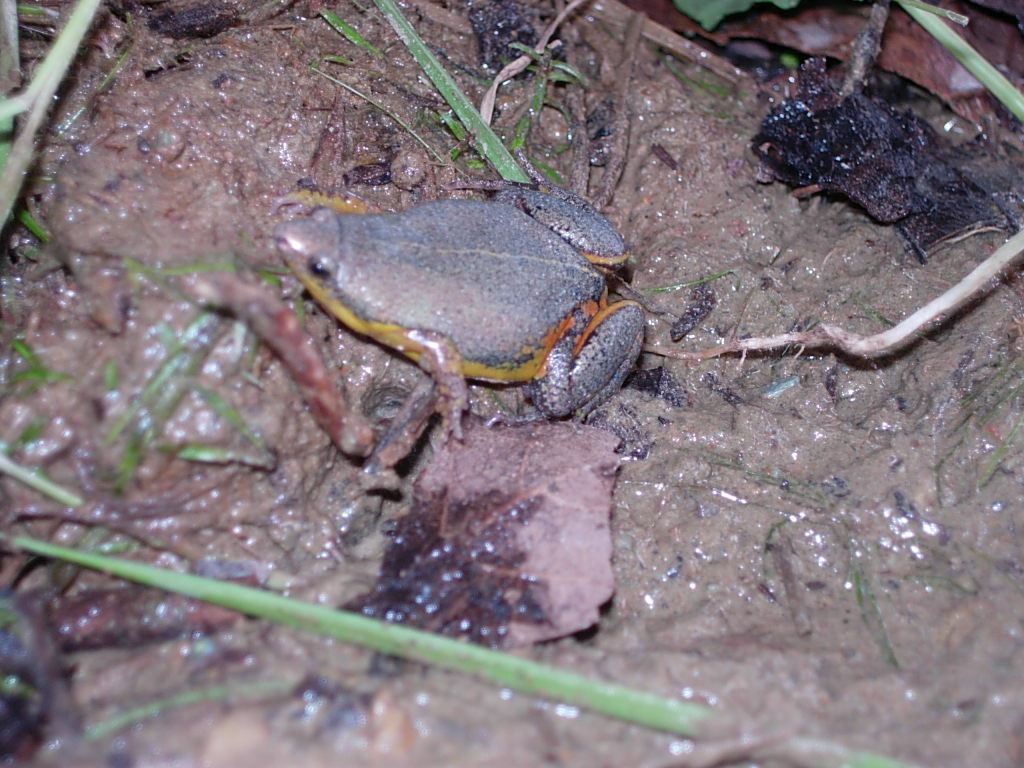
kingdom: Animalia
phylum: Chordata
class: Amphibia
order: Anura
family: Microhylidae
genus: Elachistocleis
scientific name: Elachistocleis bicolor
